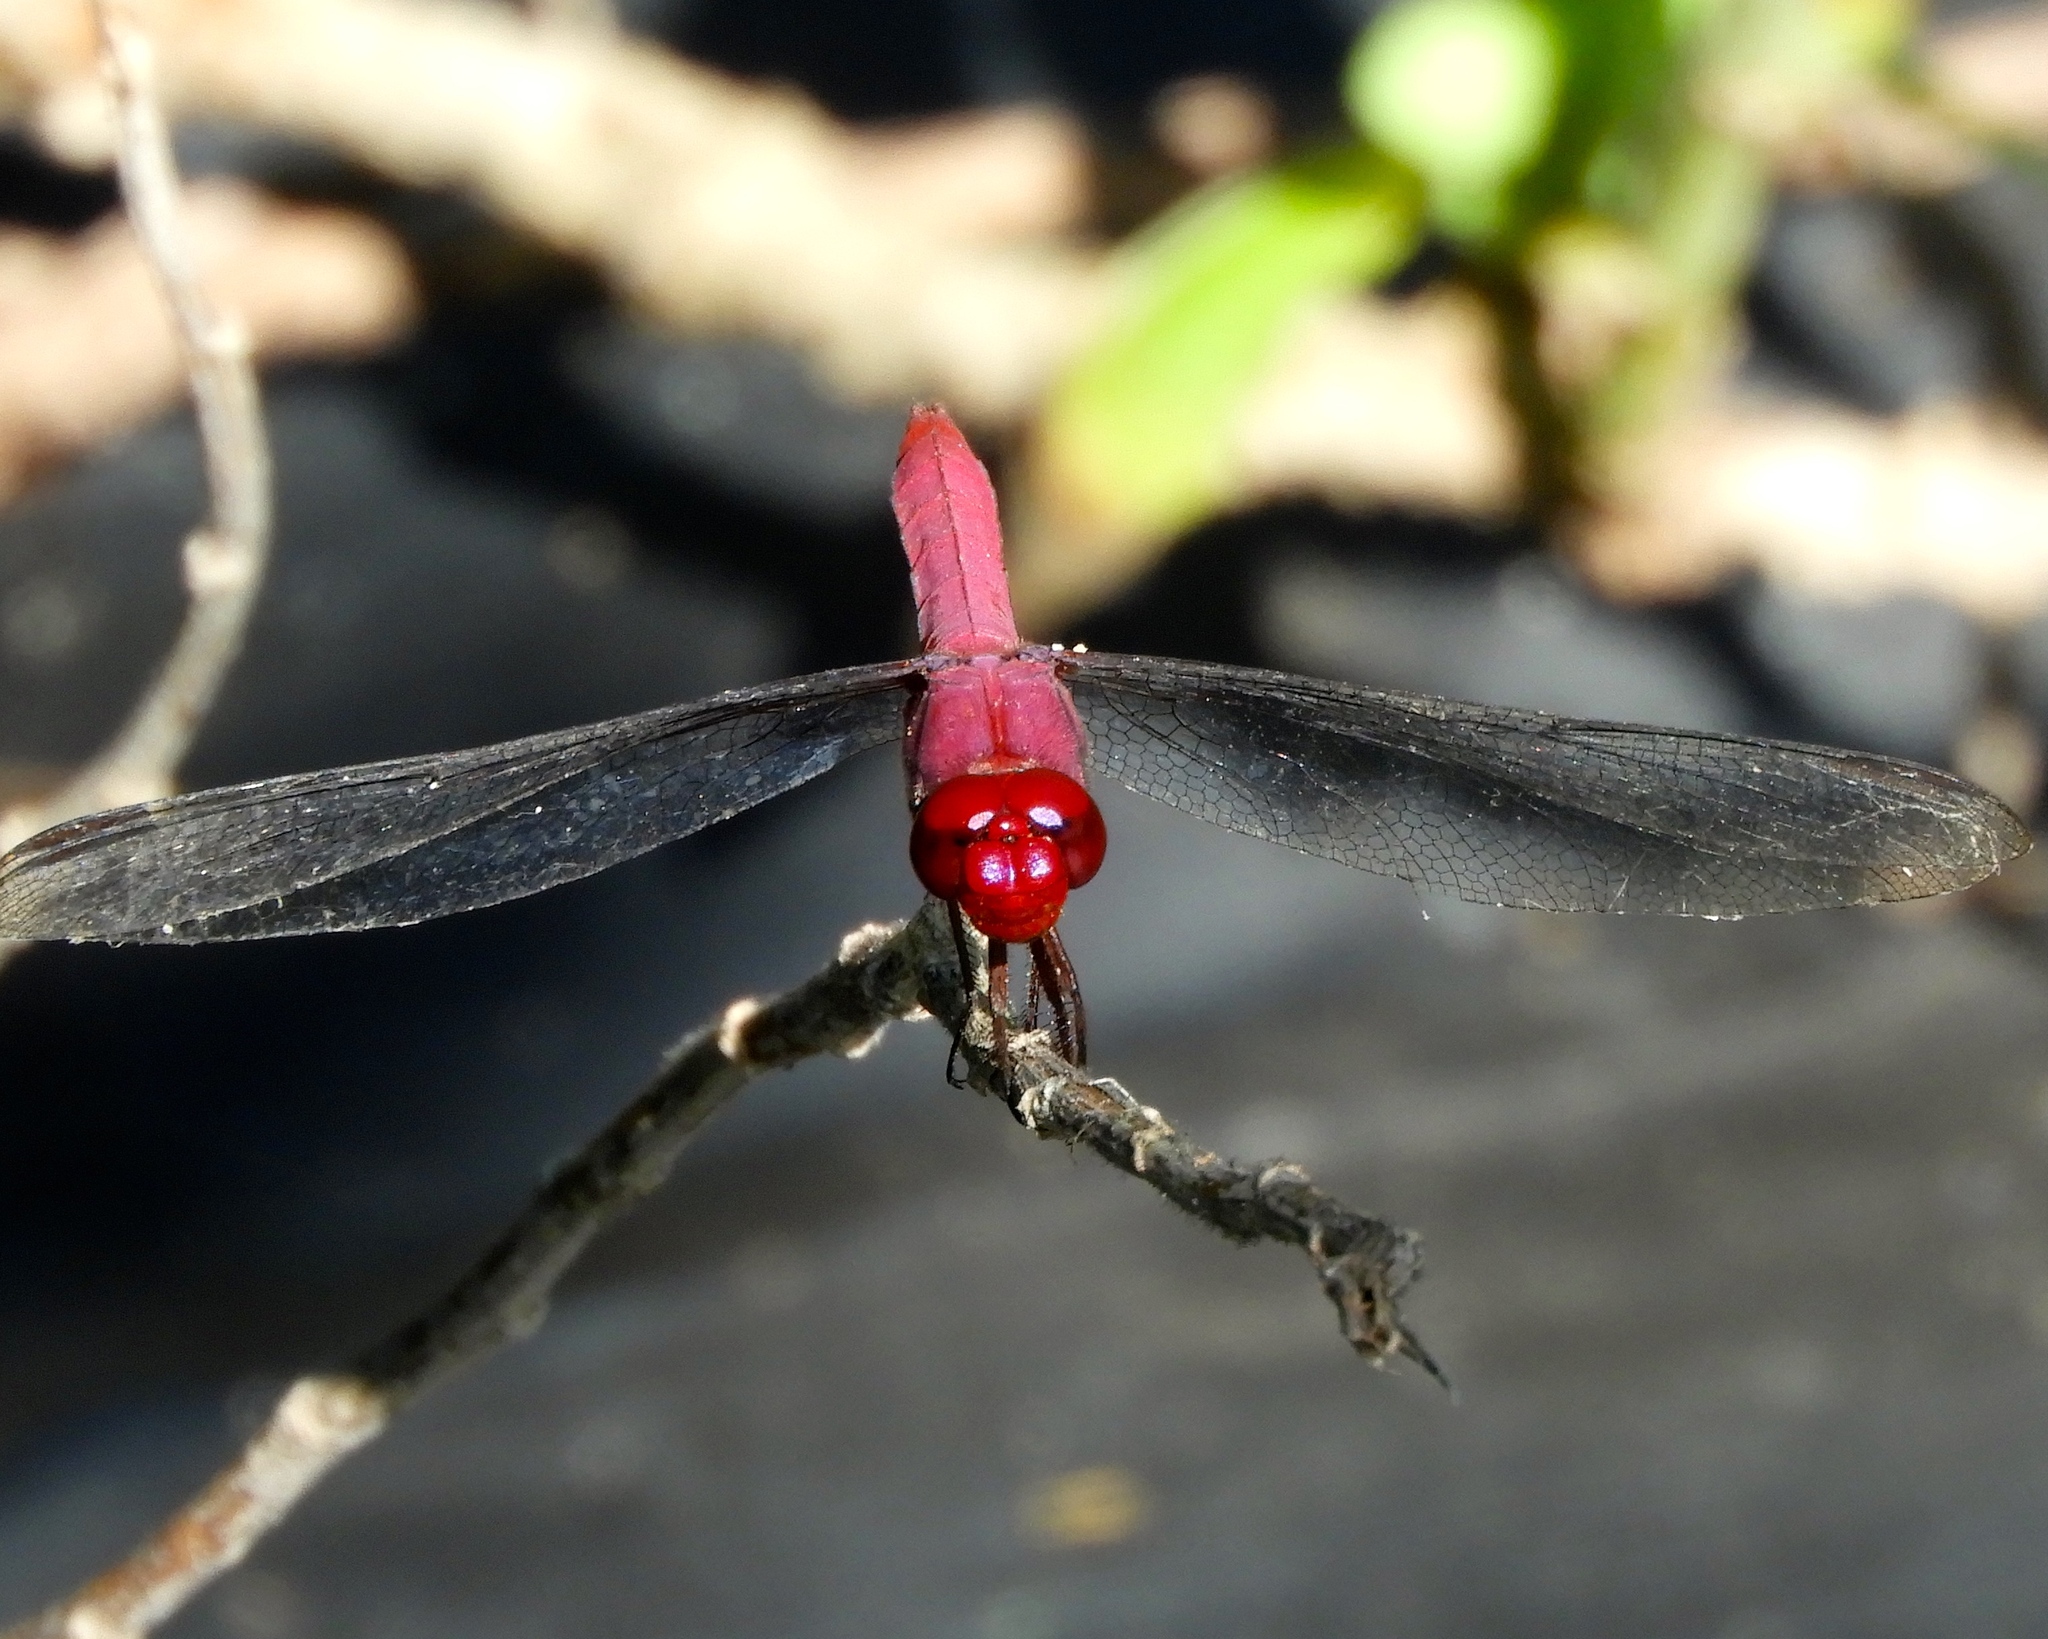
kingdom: Animalia
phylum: Arthropoda
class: Insecta
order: Odonata
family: Libellulidae
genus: Orthemis
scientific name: Orthemis discolor
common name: Carmine skimmer
